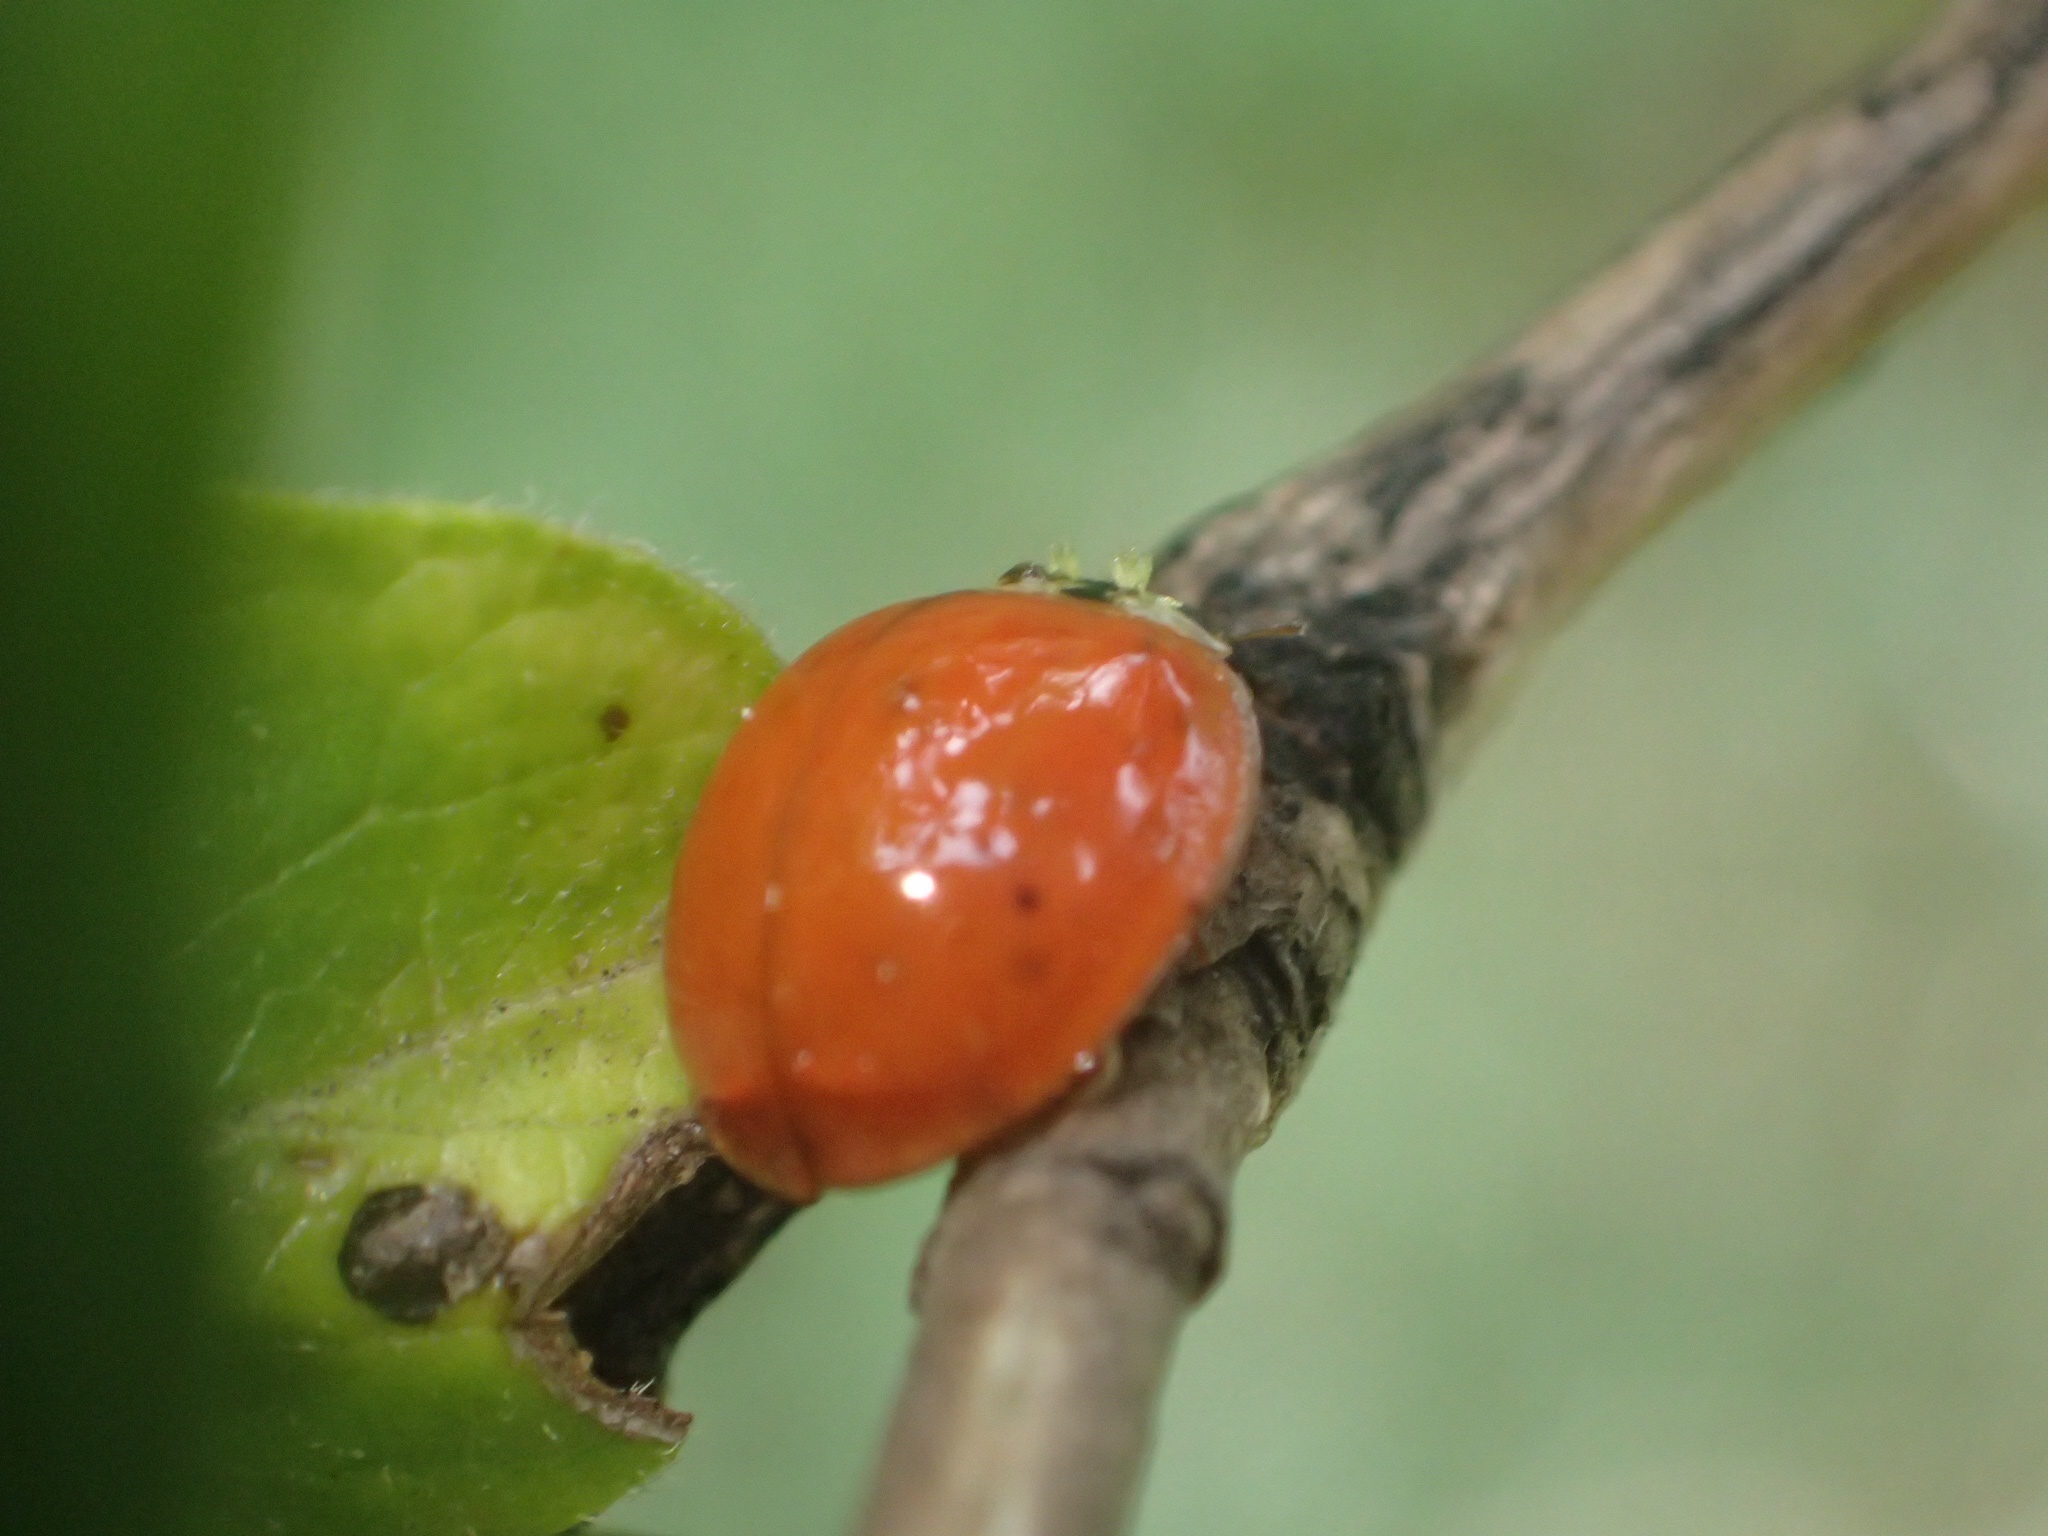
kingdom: Animalia
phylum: Arthropoda
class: Insecta
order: Coleoptera
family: Coccinellidae
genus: Harmonia
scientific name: Harmonia axyridis
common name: Harlequin ladybird
